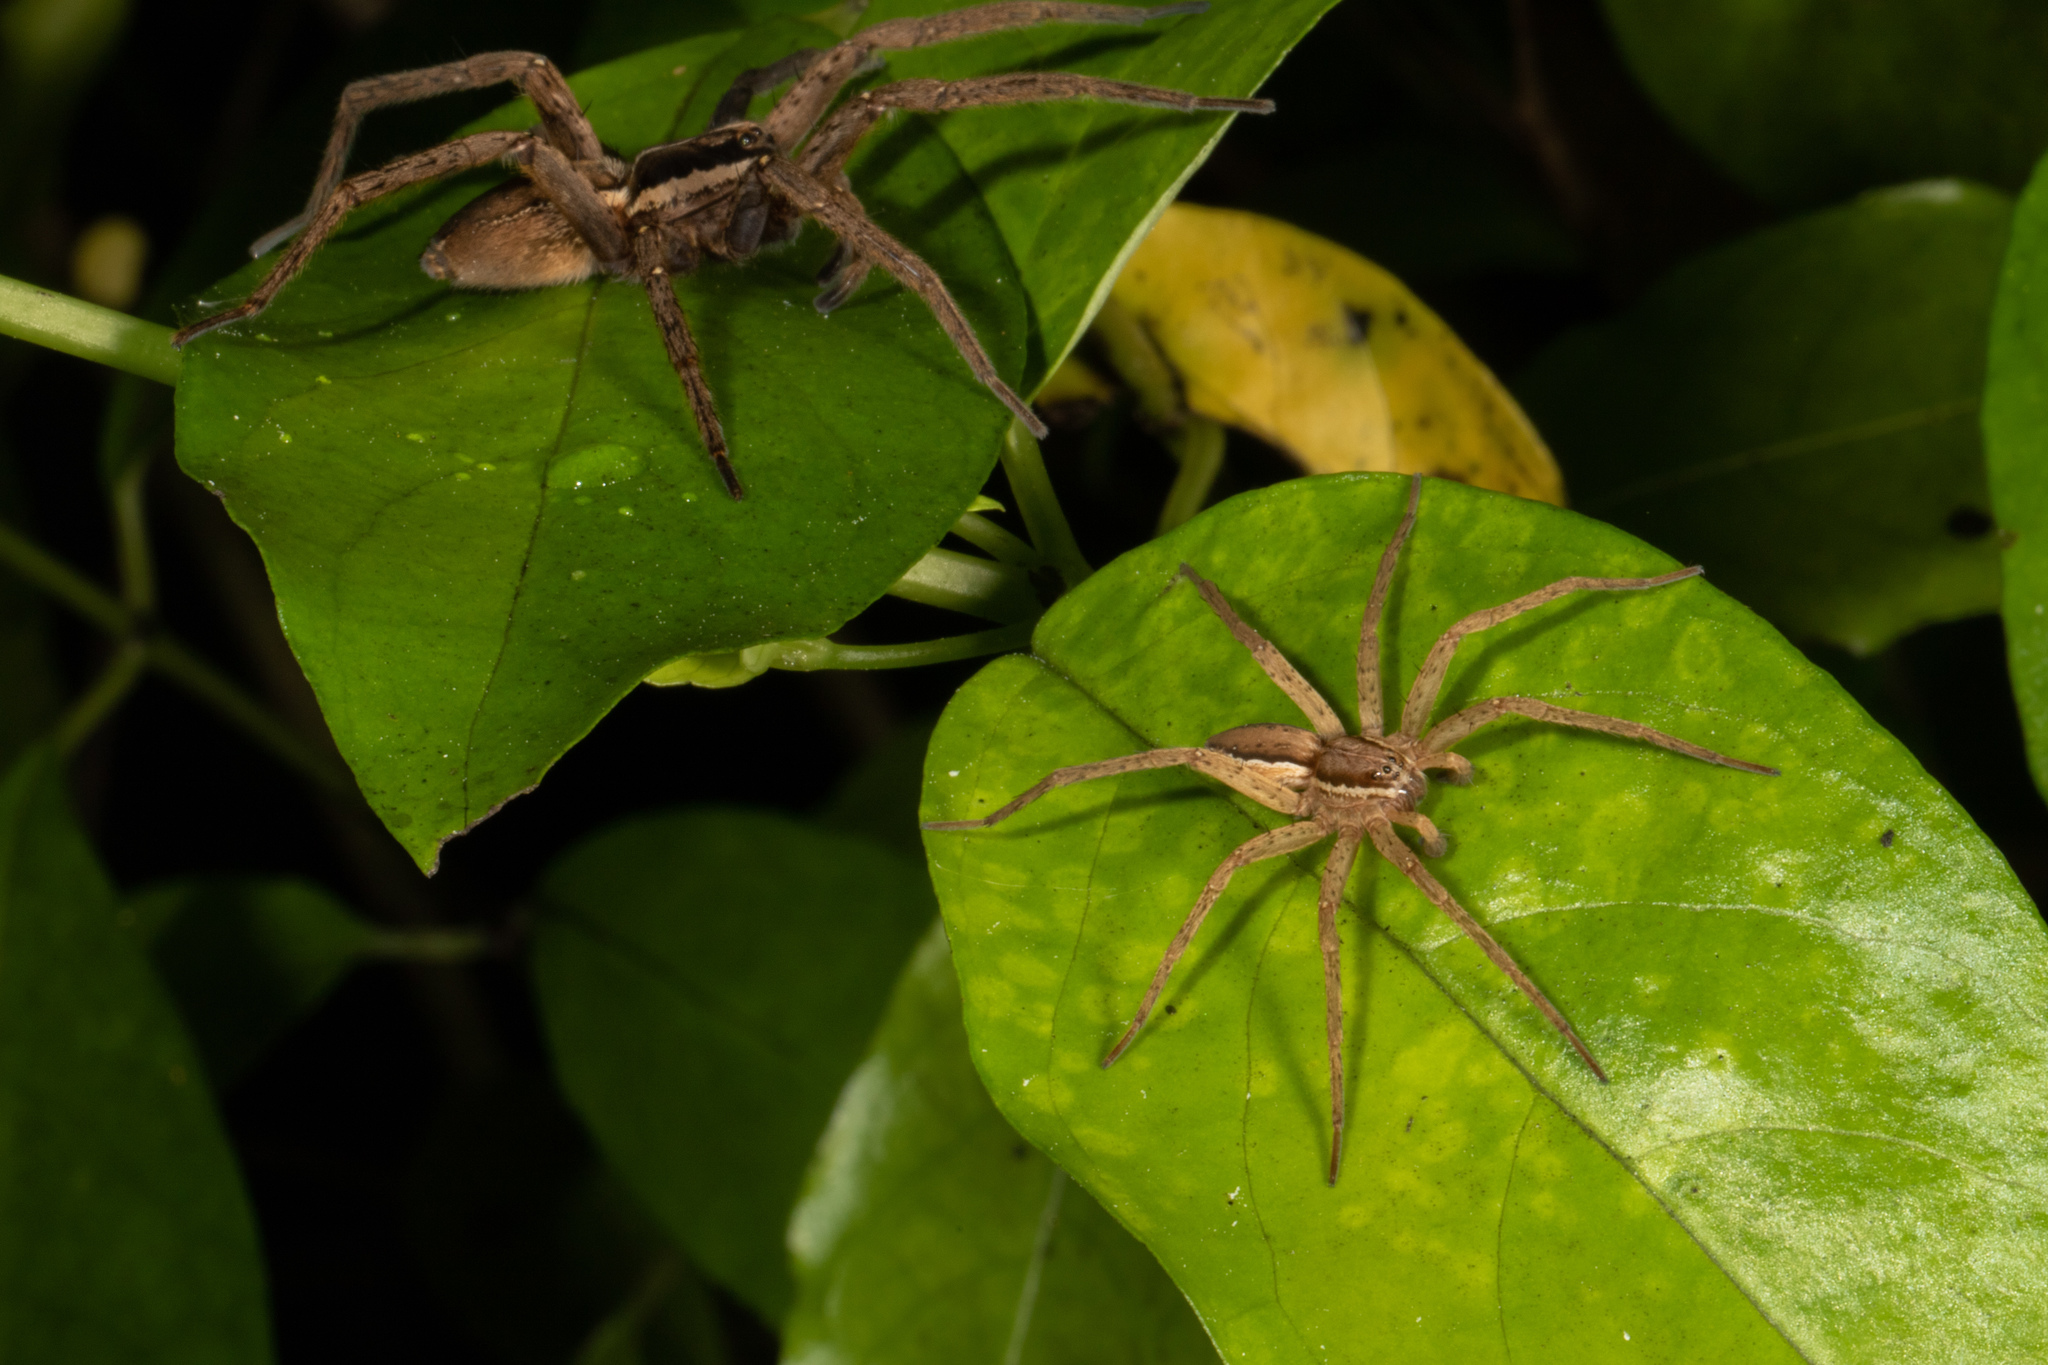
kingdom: Animalia
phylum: Arthropoda
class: Arachnida
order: Araneae
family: Pisauridae
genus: Dolomedes
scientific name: Dolomedes minor
